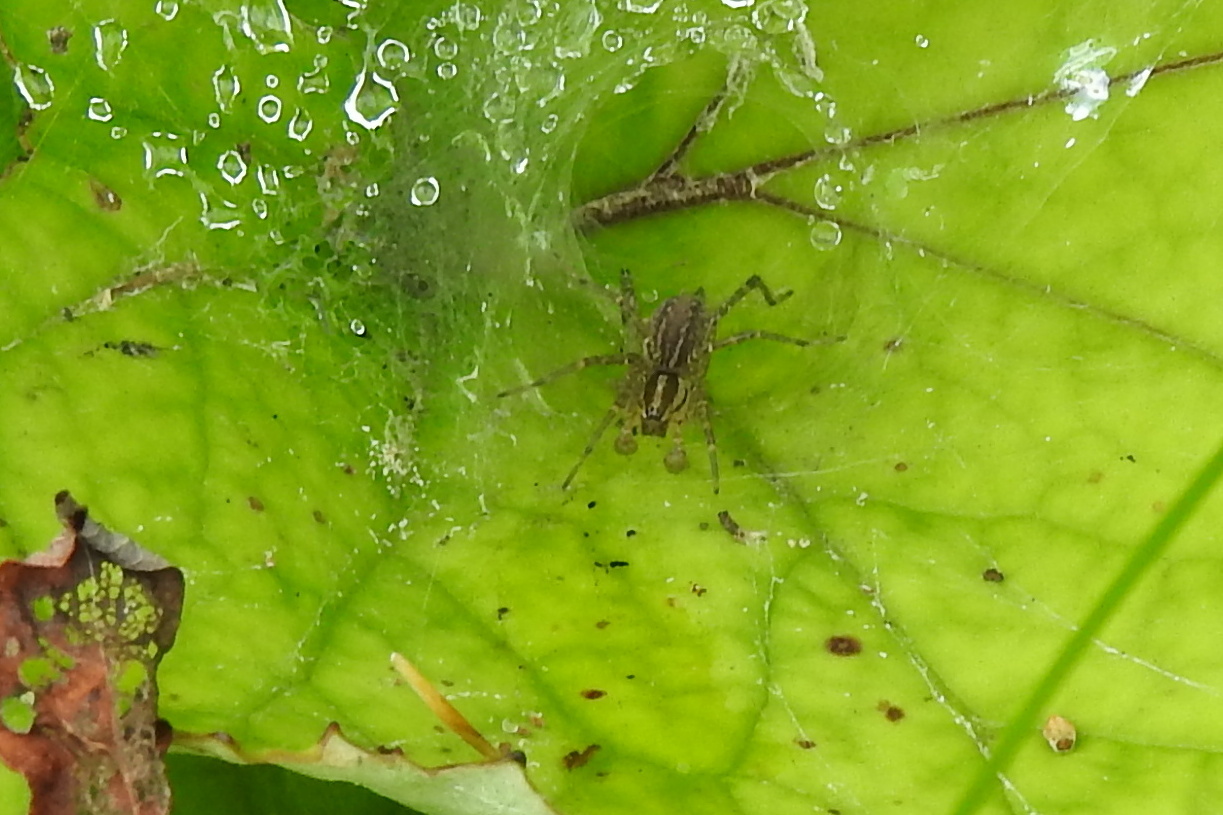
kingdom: Animalia
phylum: Arthropoda
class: Arachnida
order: Araneae
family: Agelenidae
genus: Agelenopsis
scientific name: Agelenopsis
